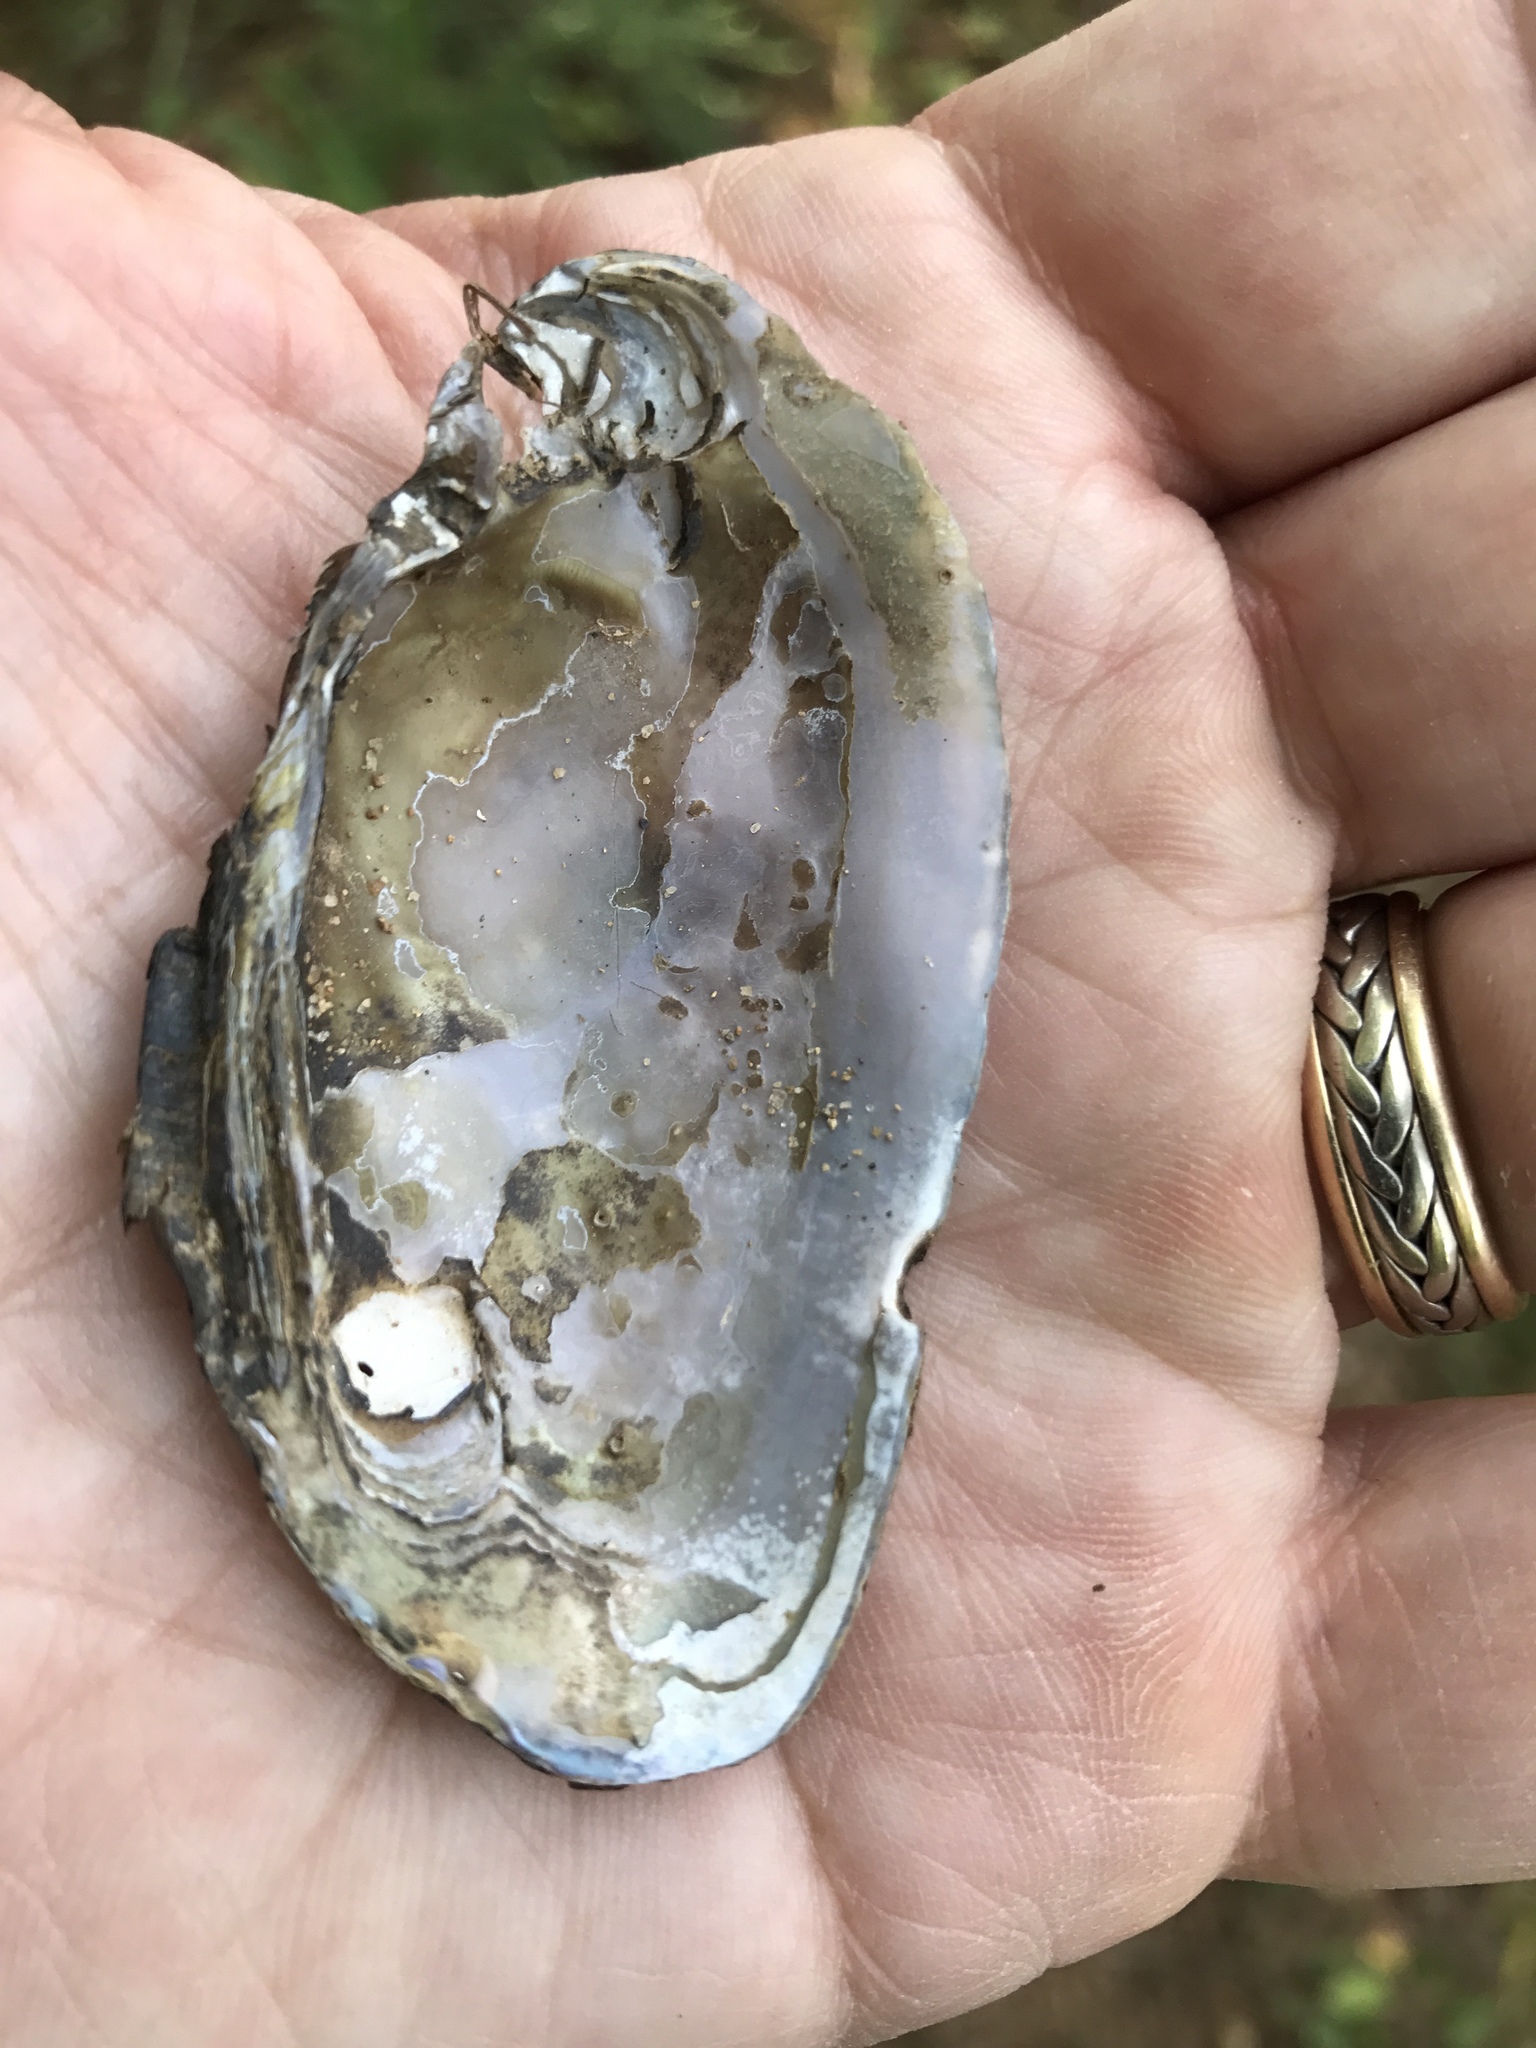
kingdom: Animalia
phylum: Mollusca
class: Bivalvia
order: Unionida
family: Unionidae
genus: Elliptio
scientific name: Elliptio complanata
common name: Eastern elliptio
